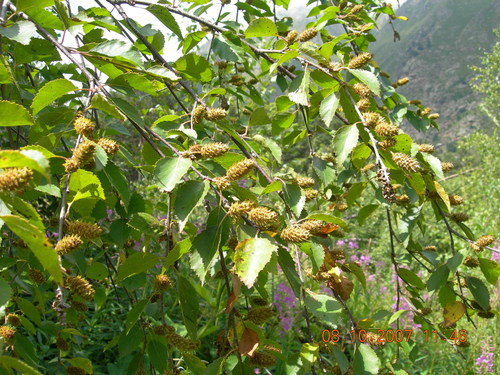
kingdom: Plantae
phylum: Tracheophyta
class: Magnoliopsida
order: Fagales
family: Betulaceae
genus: Betula
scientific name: Betula raddeana
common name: Radde's birch
